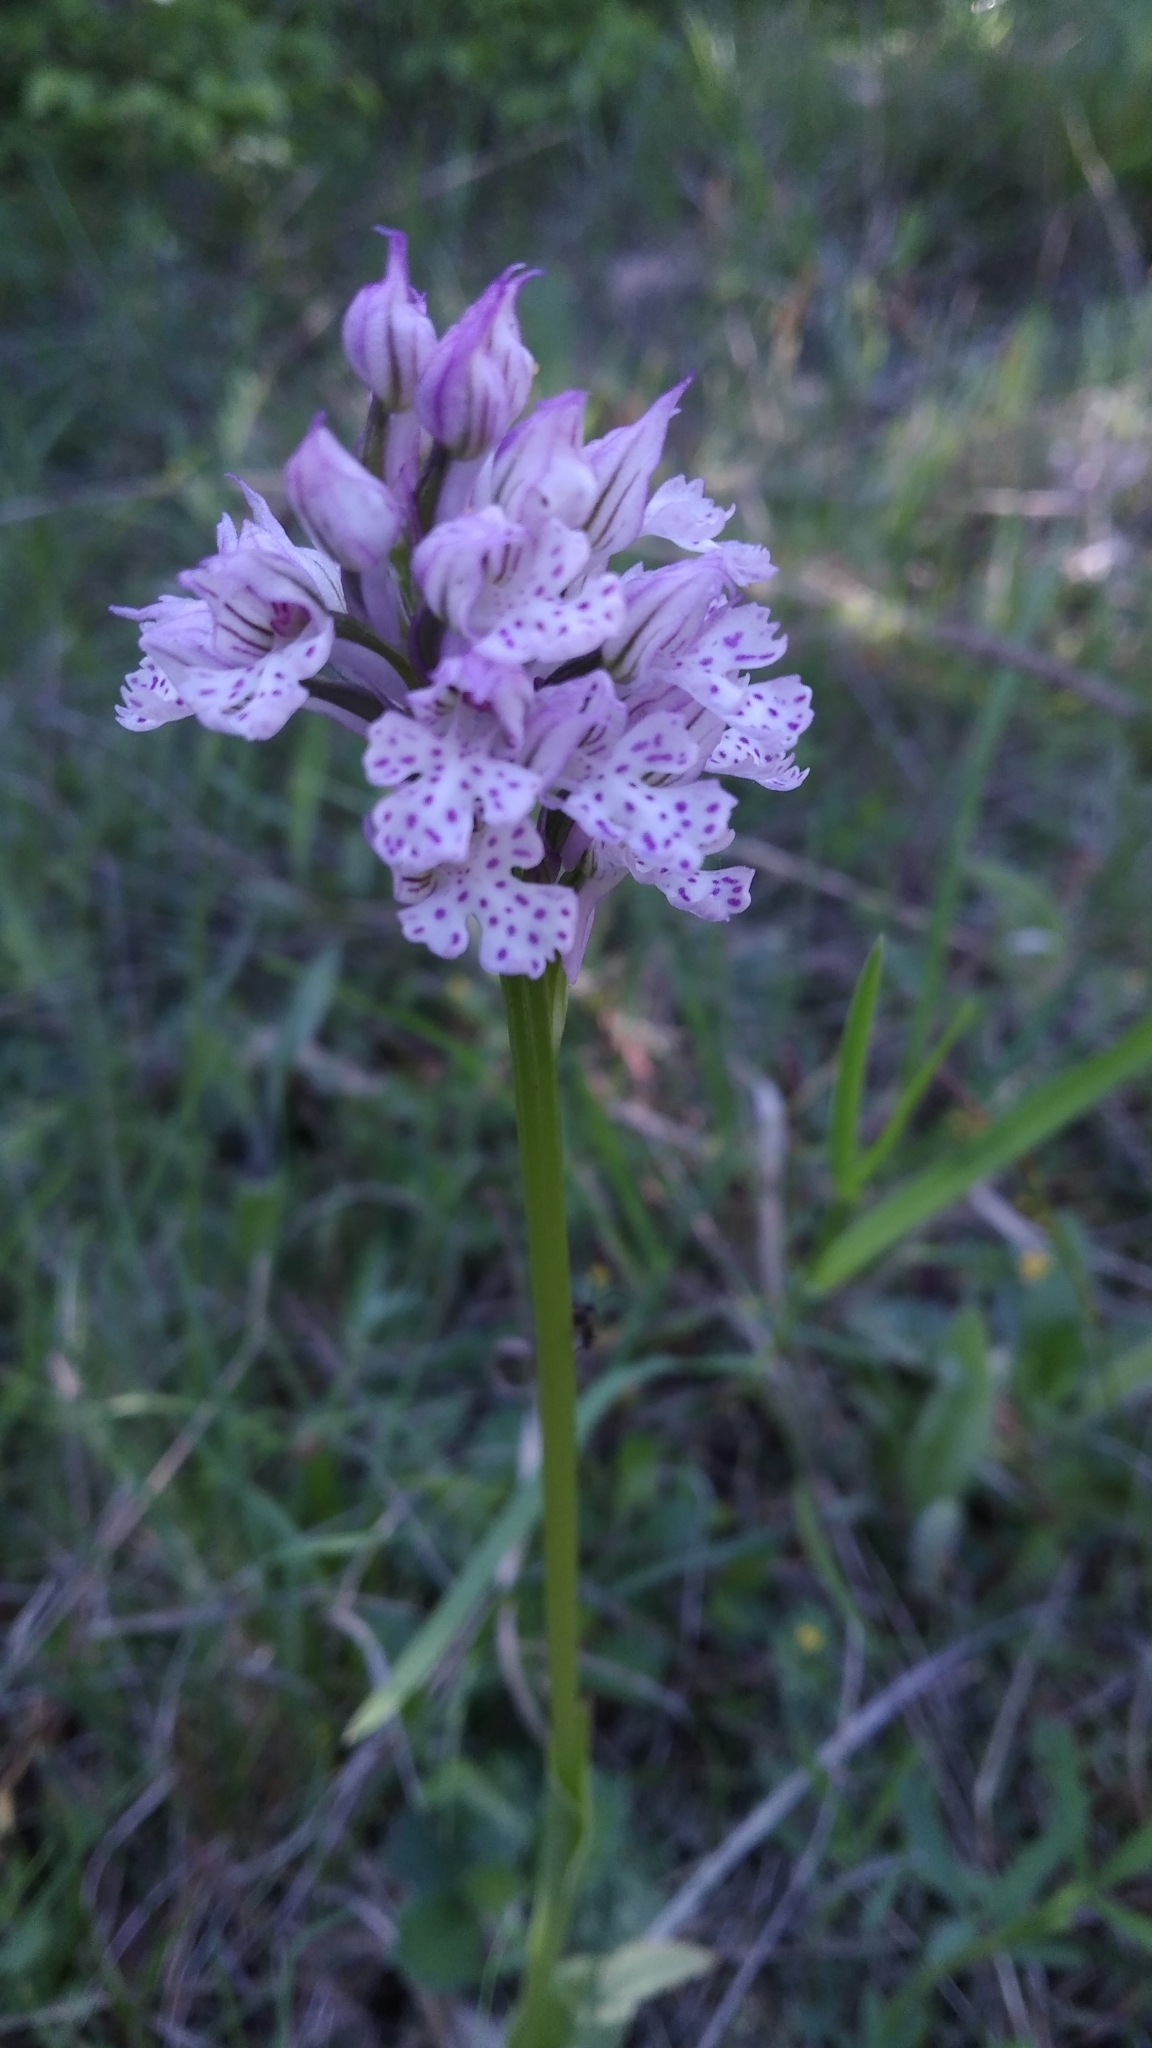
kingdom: Plantae
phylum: Tracheophyta
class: Liliopsida
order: Asparagales
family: Orchidaceae
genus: Neotinea
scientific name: Neotinea tridentata
